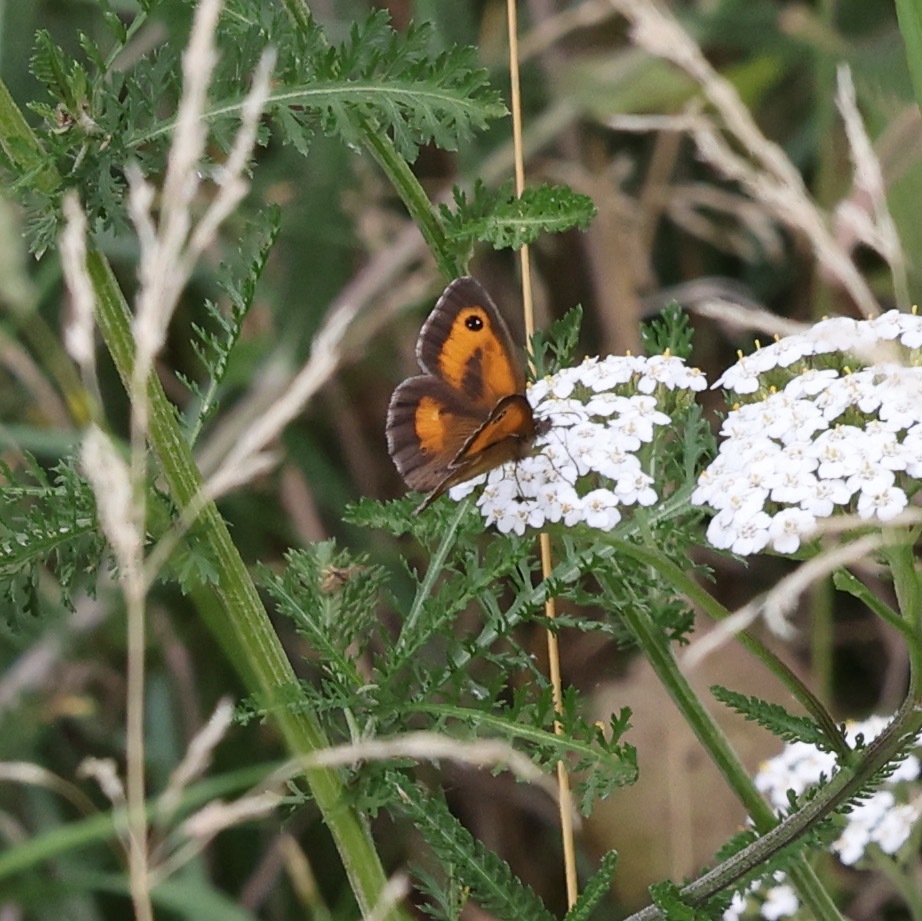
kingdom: Animalia
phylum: Arthropoda
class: Insecta
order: Lepidoptera
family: Nymphalidae
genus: Pyronia
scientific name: Pyronia tithonus
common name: Gatekeeper
